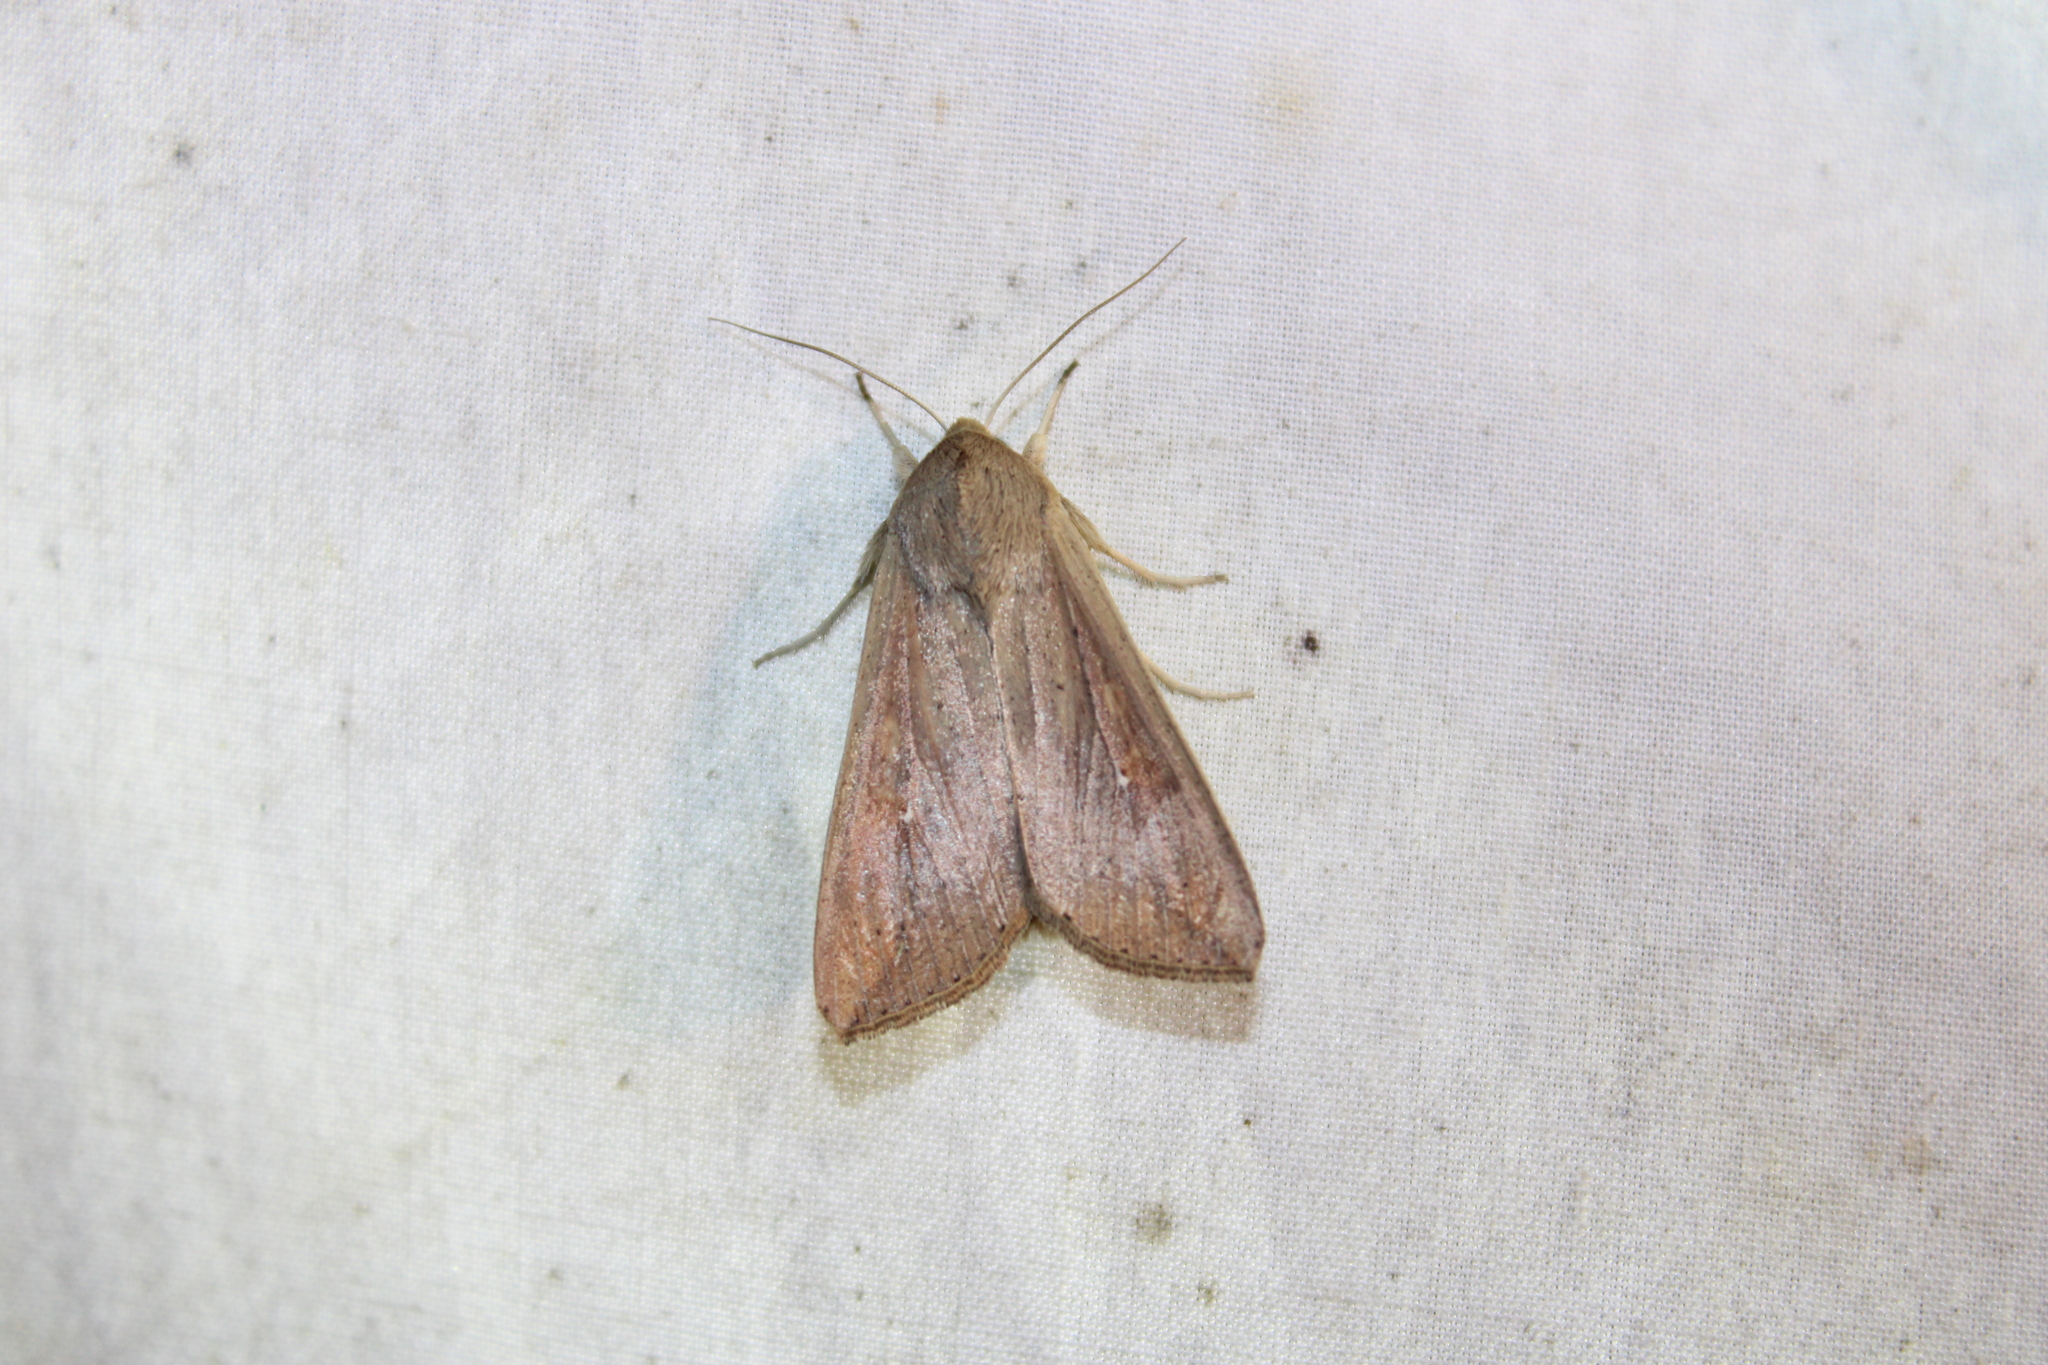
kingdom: Animalia
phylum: Arthropoda
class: Insecta
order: Lepidoptera
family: Noctuidae
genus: Mythimna
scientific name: Mythimna unipuncta
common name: White-speck
